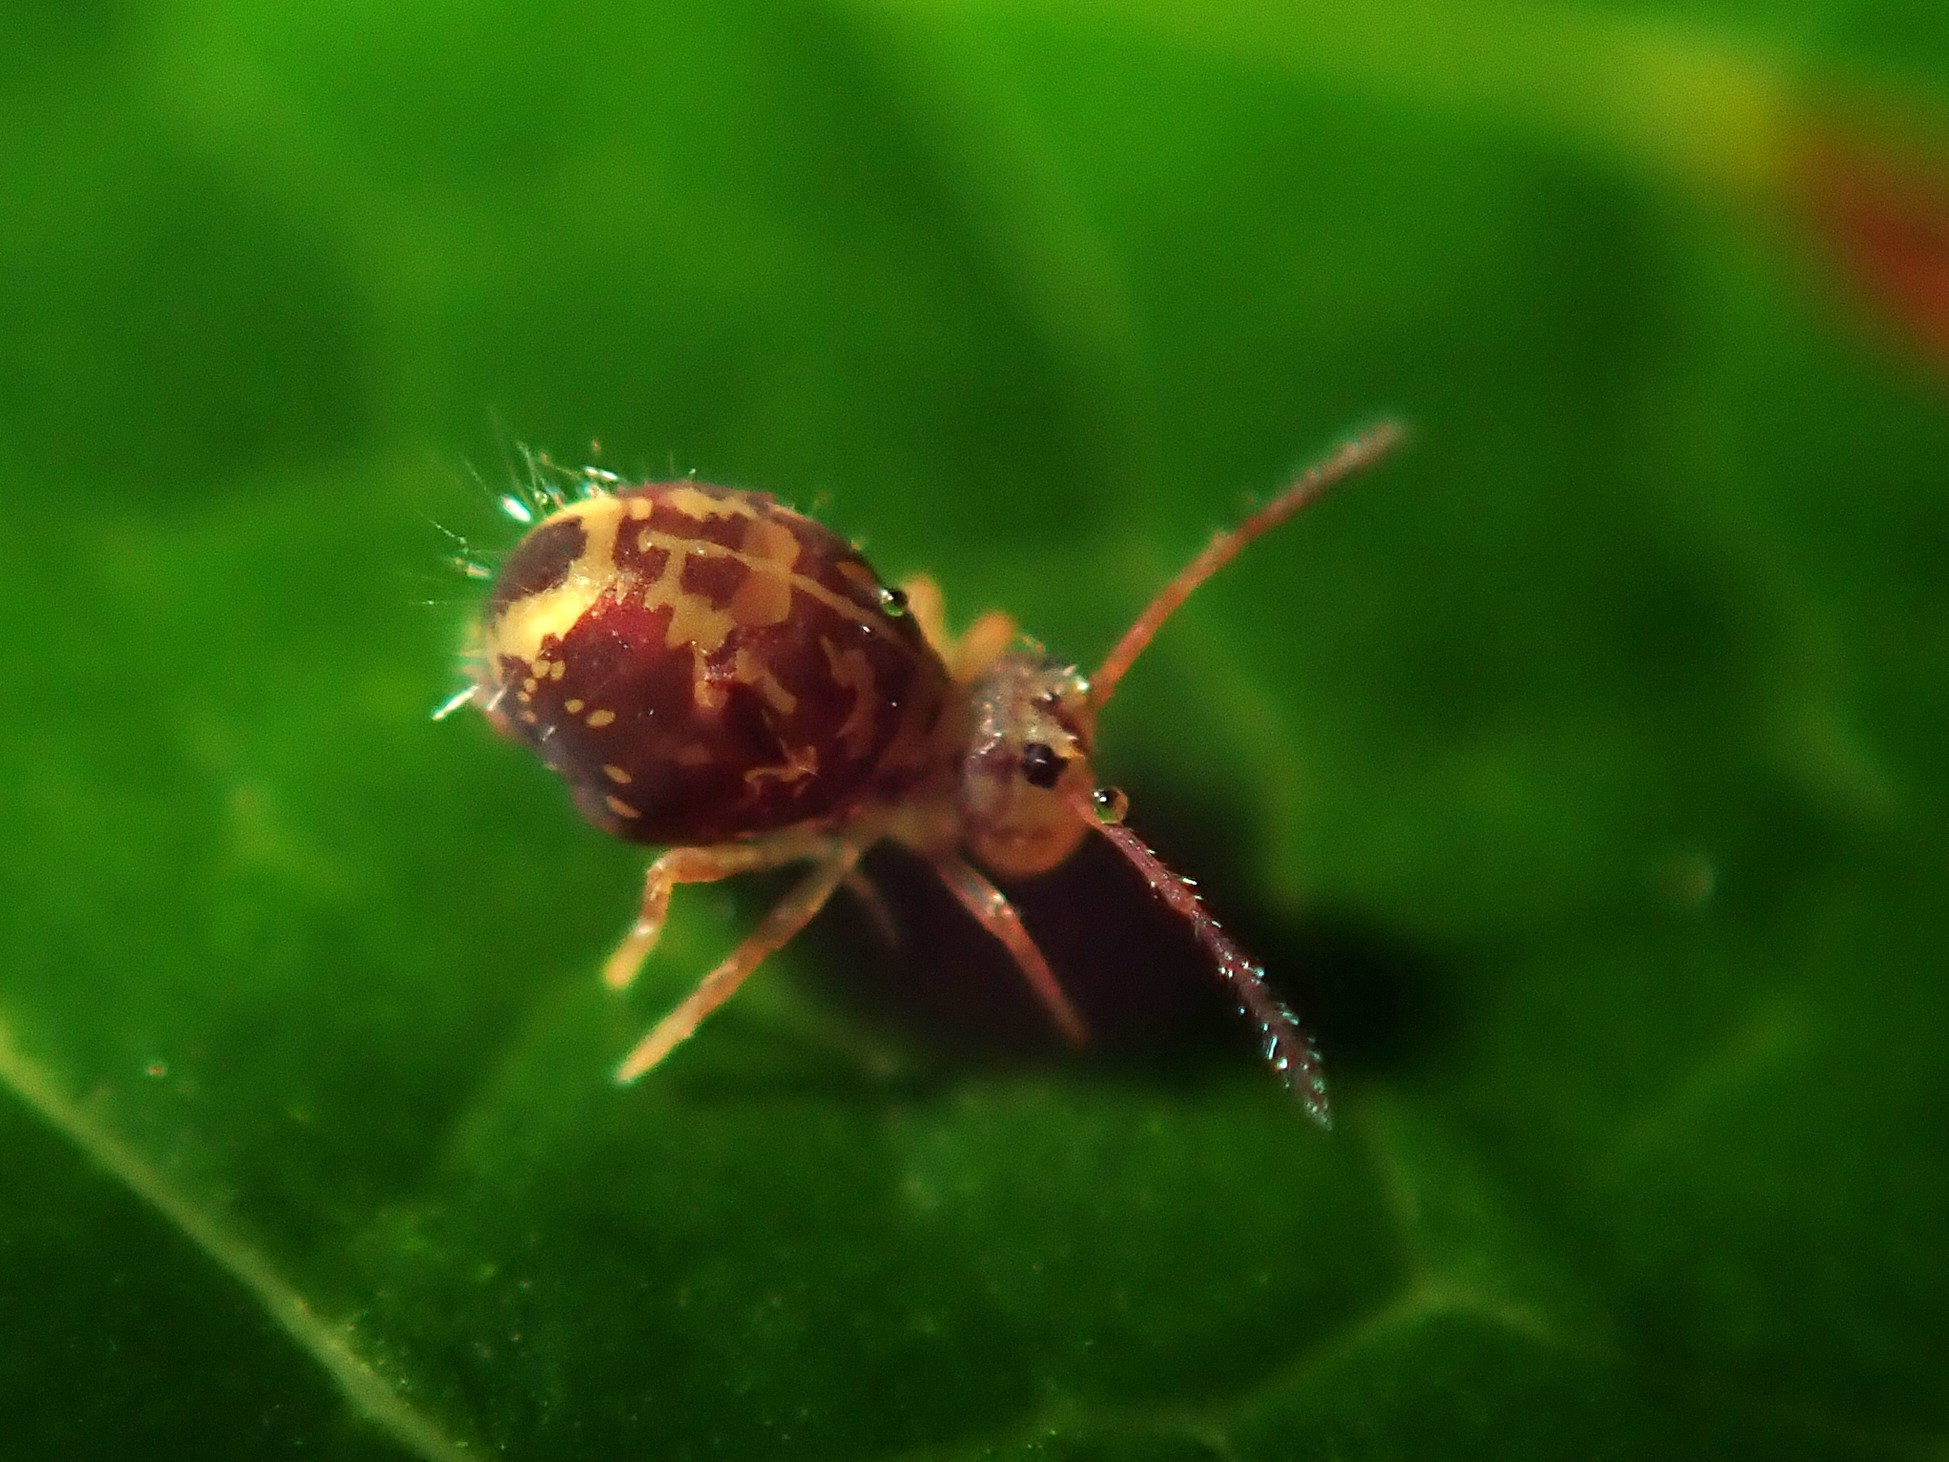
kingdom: Animalia
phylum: Arthropoda
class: Collembola
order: Symphypleona
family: Dicyrtomidae
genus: Dicyrtomina
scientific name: Dicyrtomina ornata
